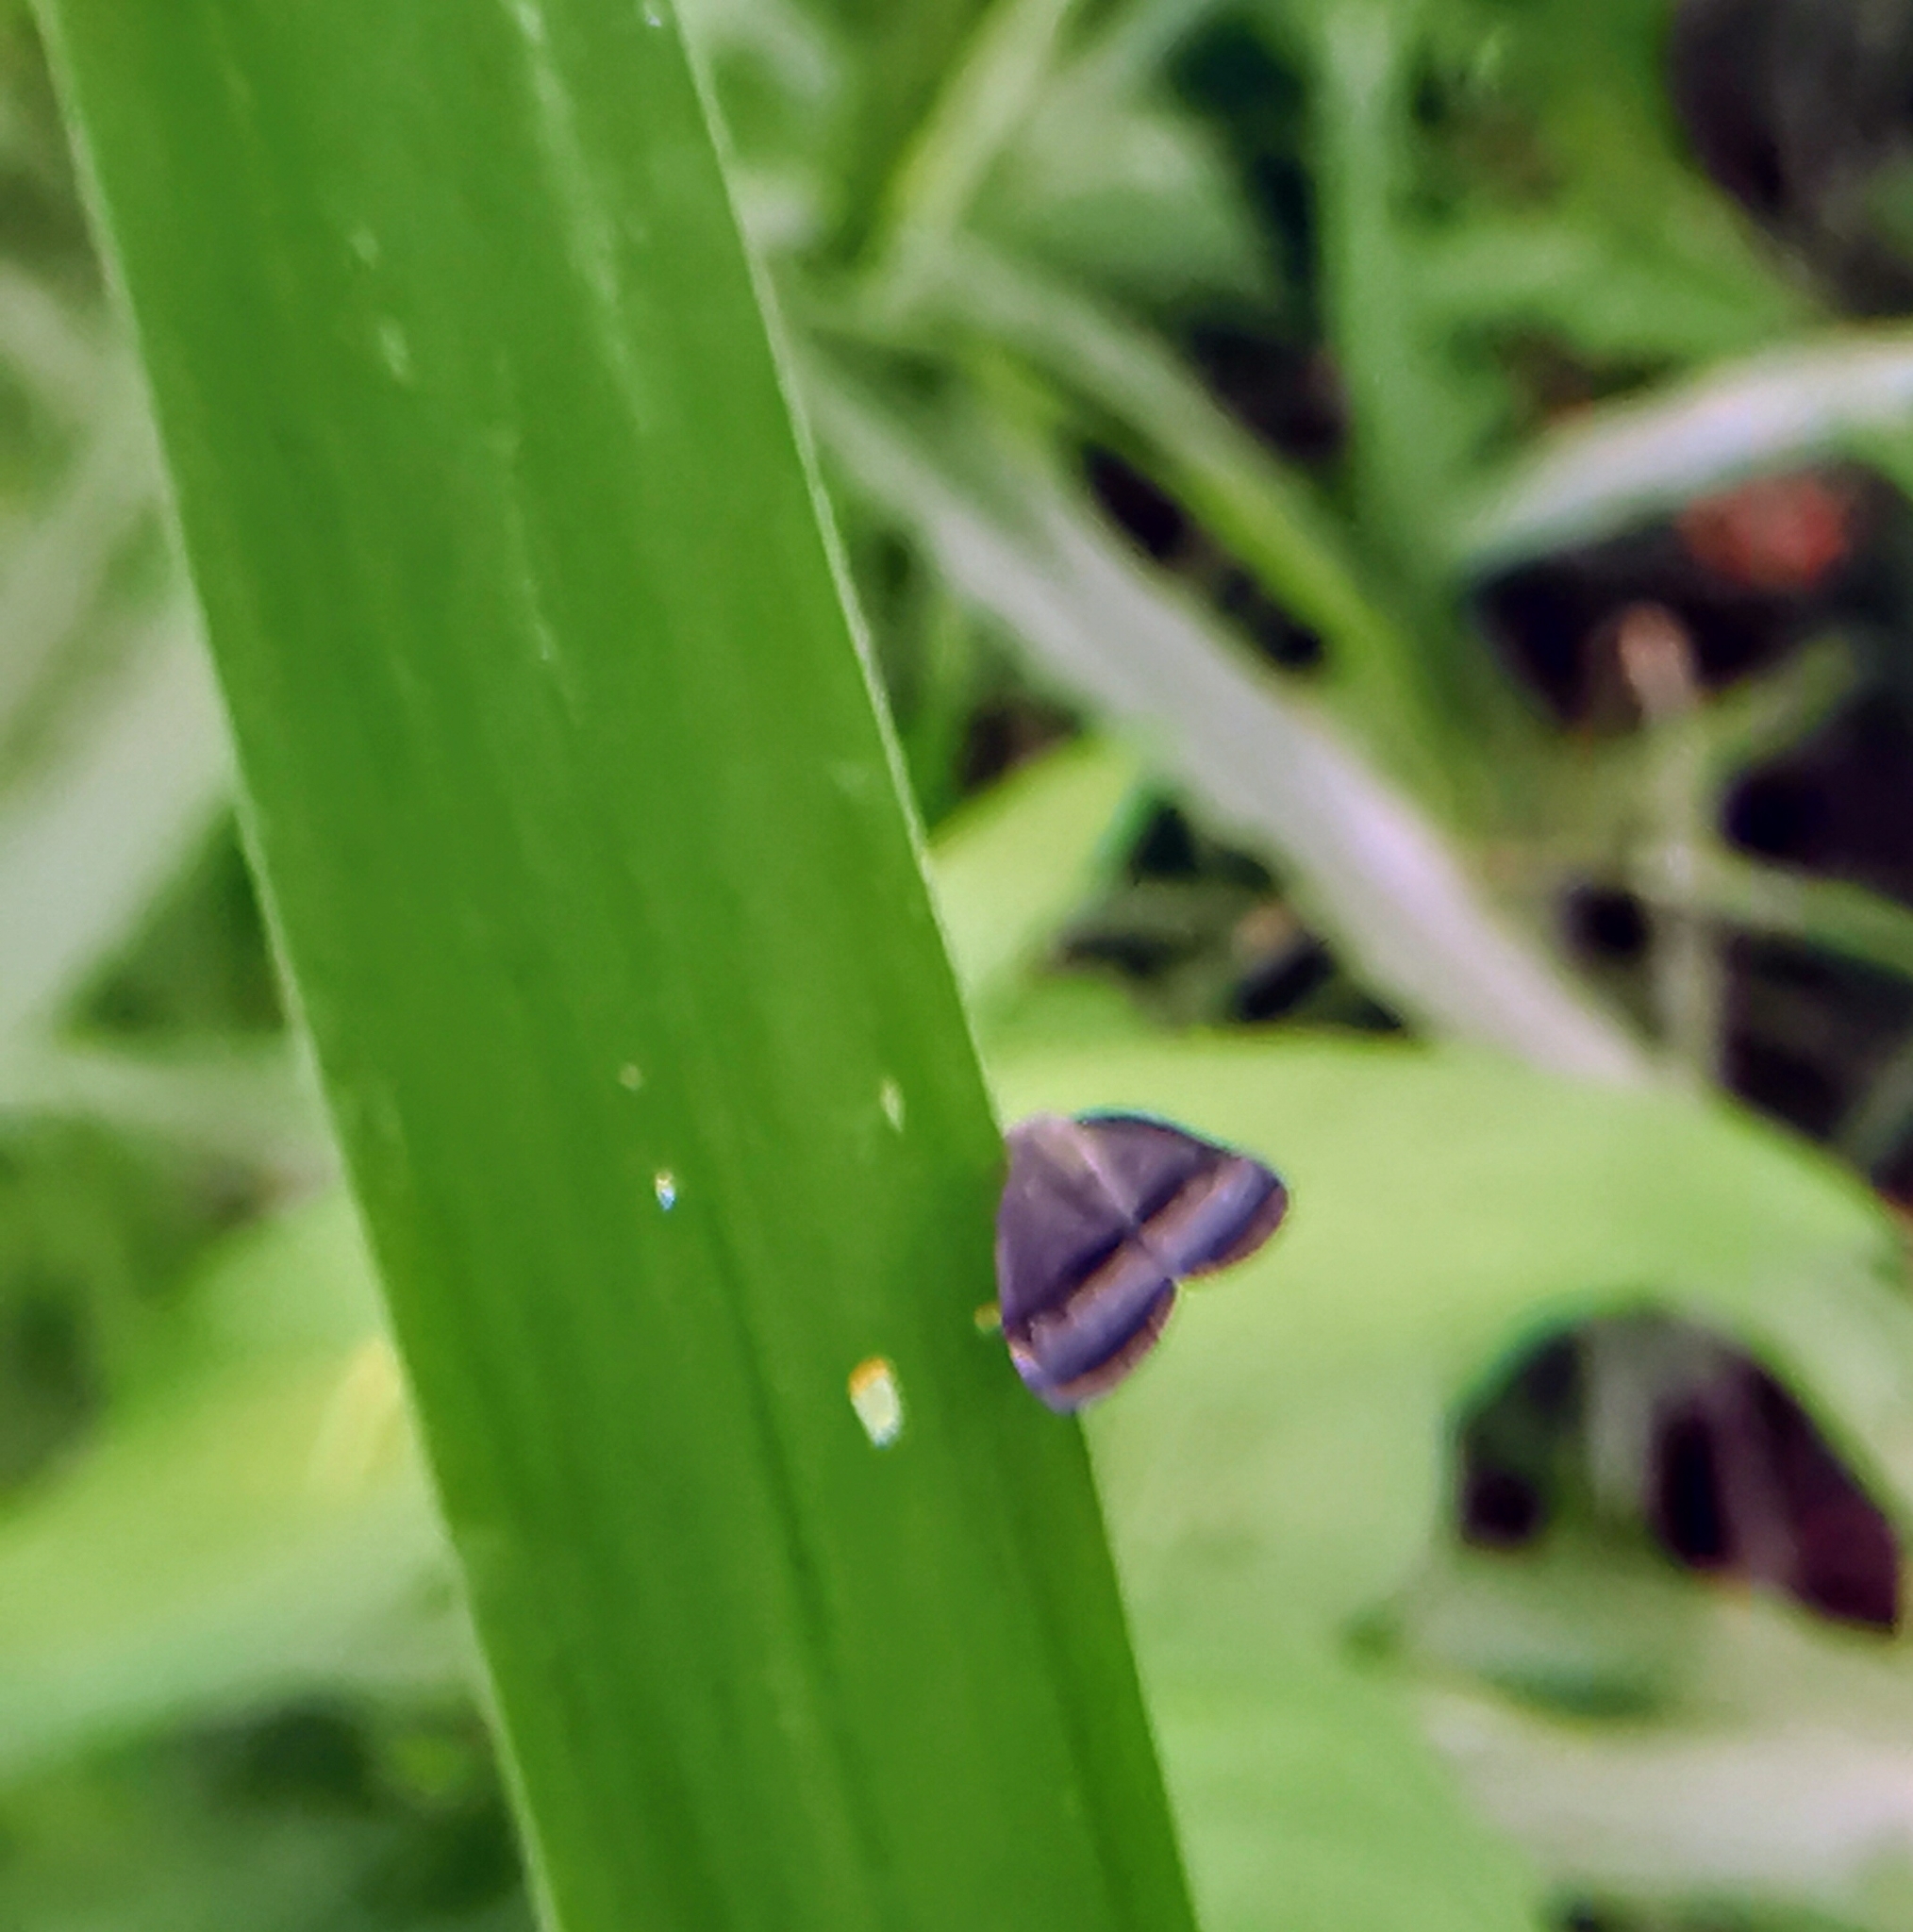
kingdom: Animalia
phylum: Arthropoda
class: Insecta
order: Hemiptera
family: Ricaniidae
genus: Ricania
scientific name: Ricania taeniata
